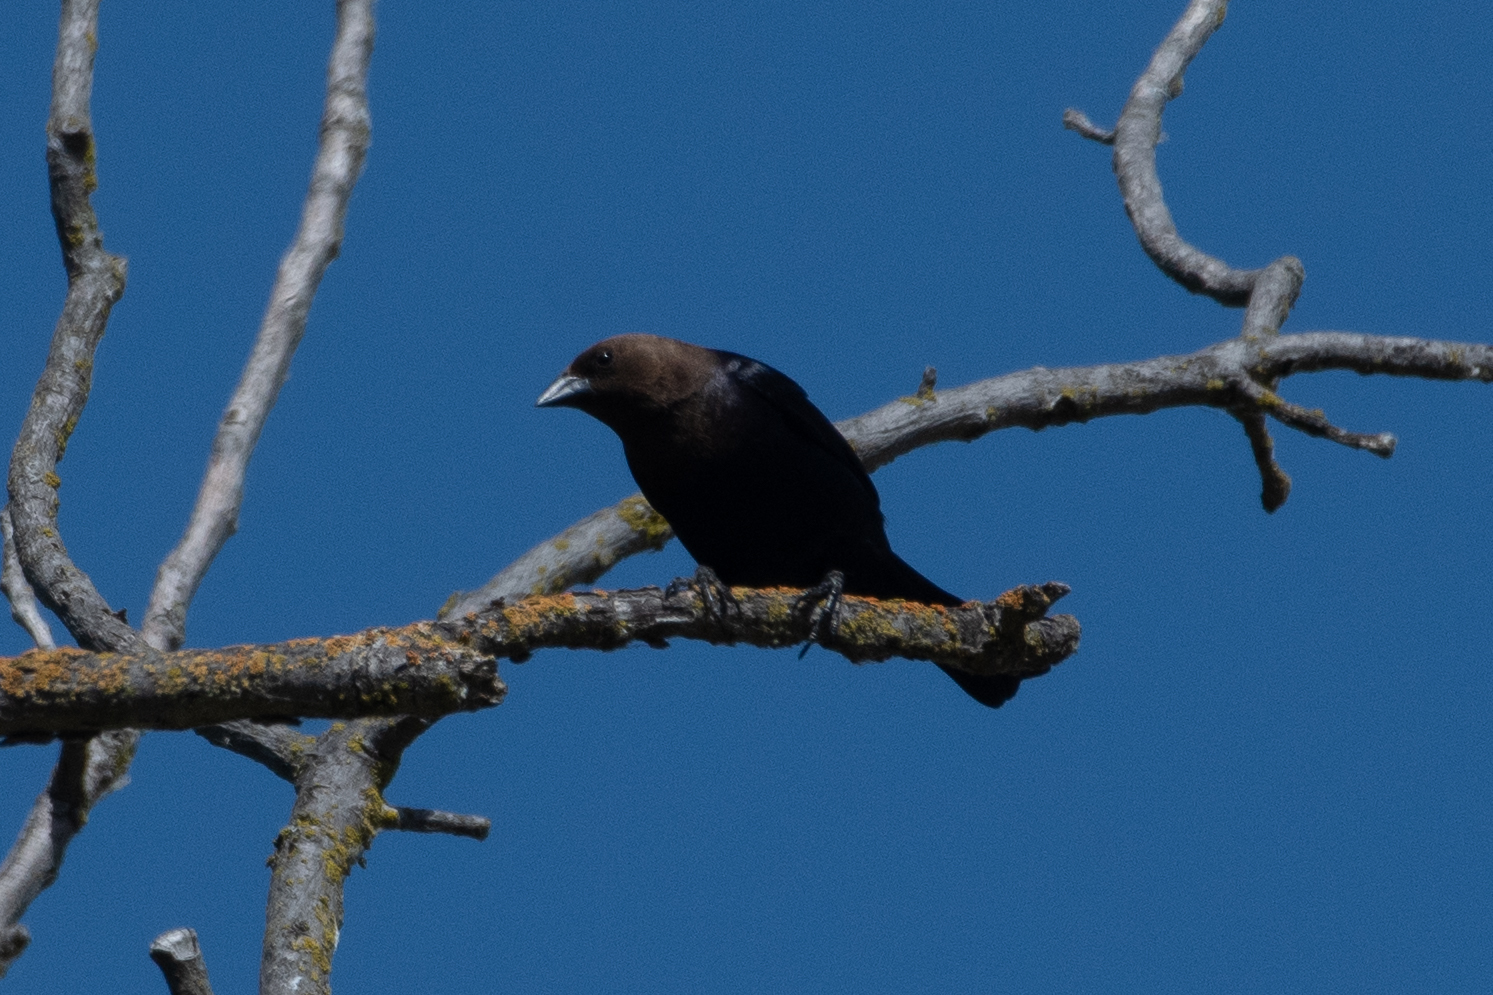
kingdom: Animalia
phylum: Chordata
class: Aves
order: Passeriformes
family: Icteridae
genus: Molothrus
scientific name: Molothrus ater
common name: Brown-headed cowbird
